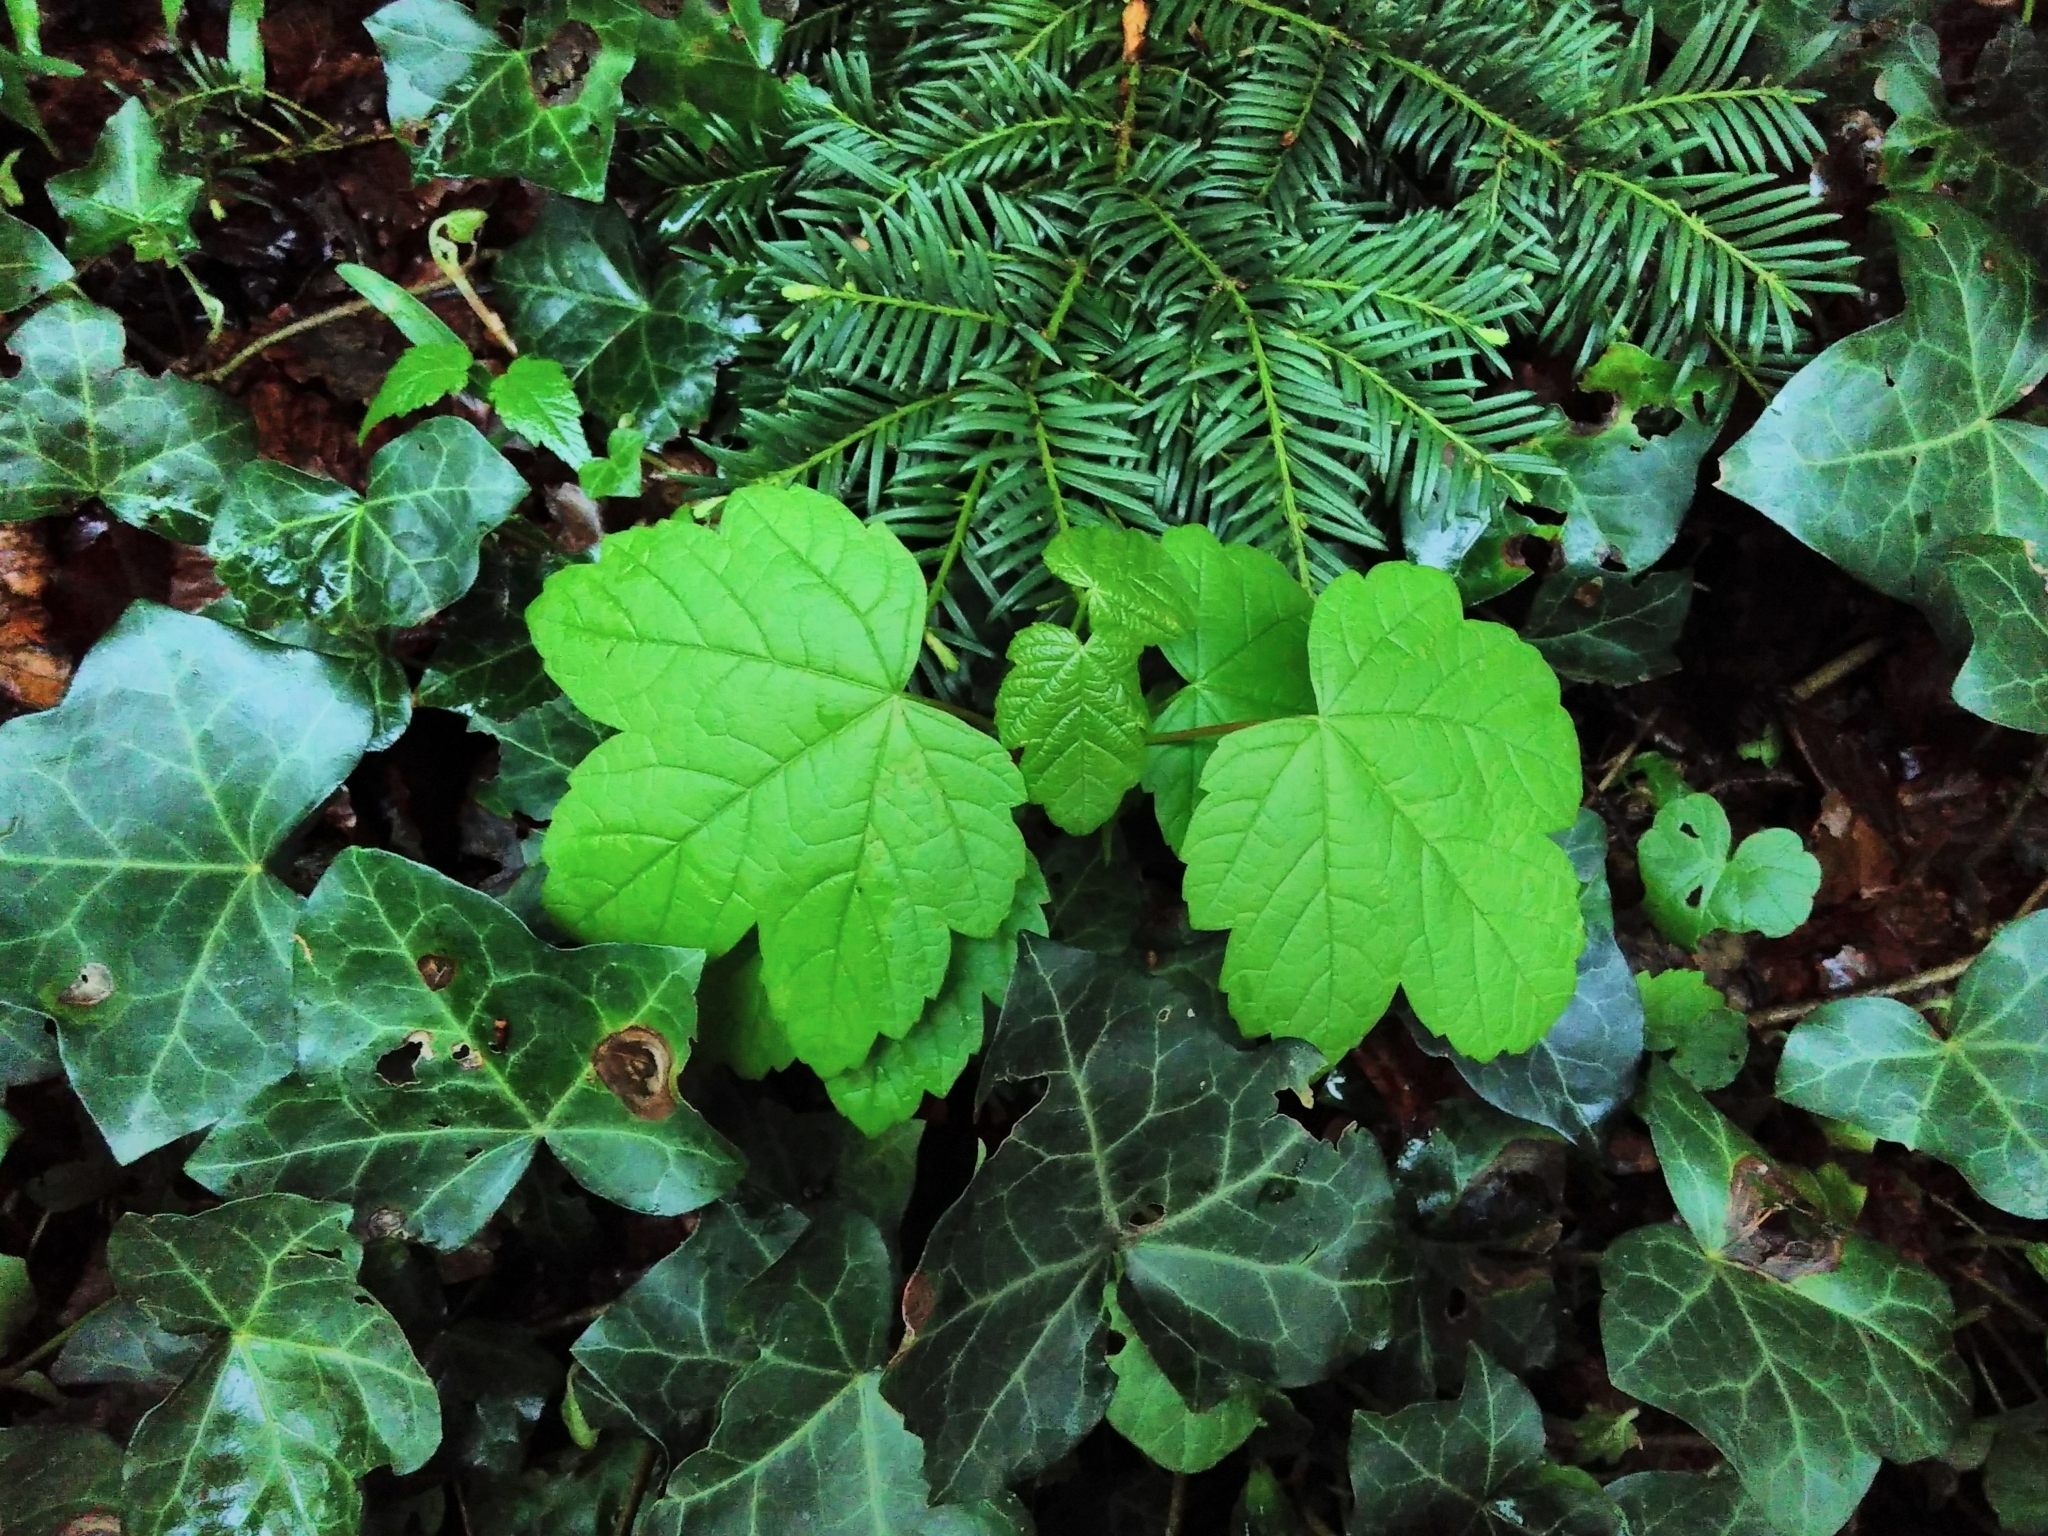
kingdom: Plantae
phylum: Tracheophyta
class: Magnoliopsida
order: Sapindales
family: Sapindaceae
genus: Acer
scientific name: Acer pseudoplatanus
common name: Sycamore
